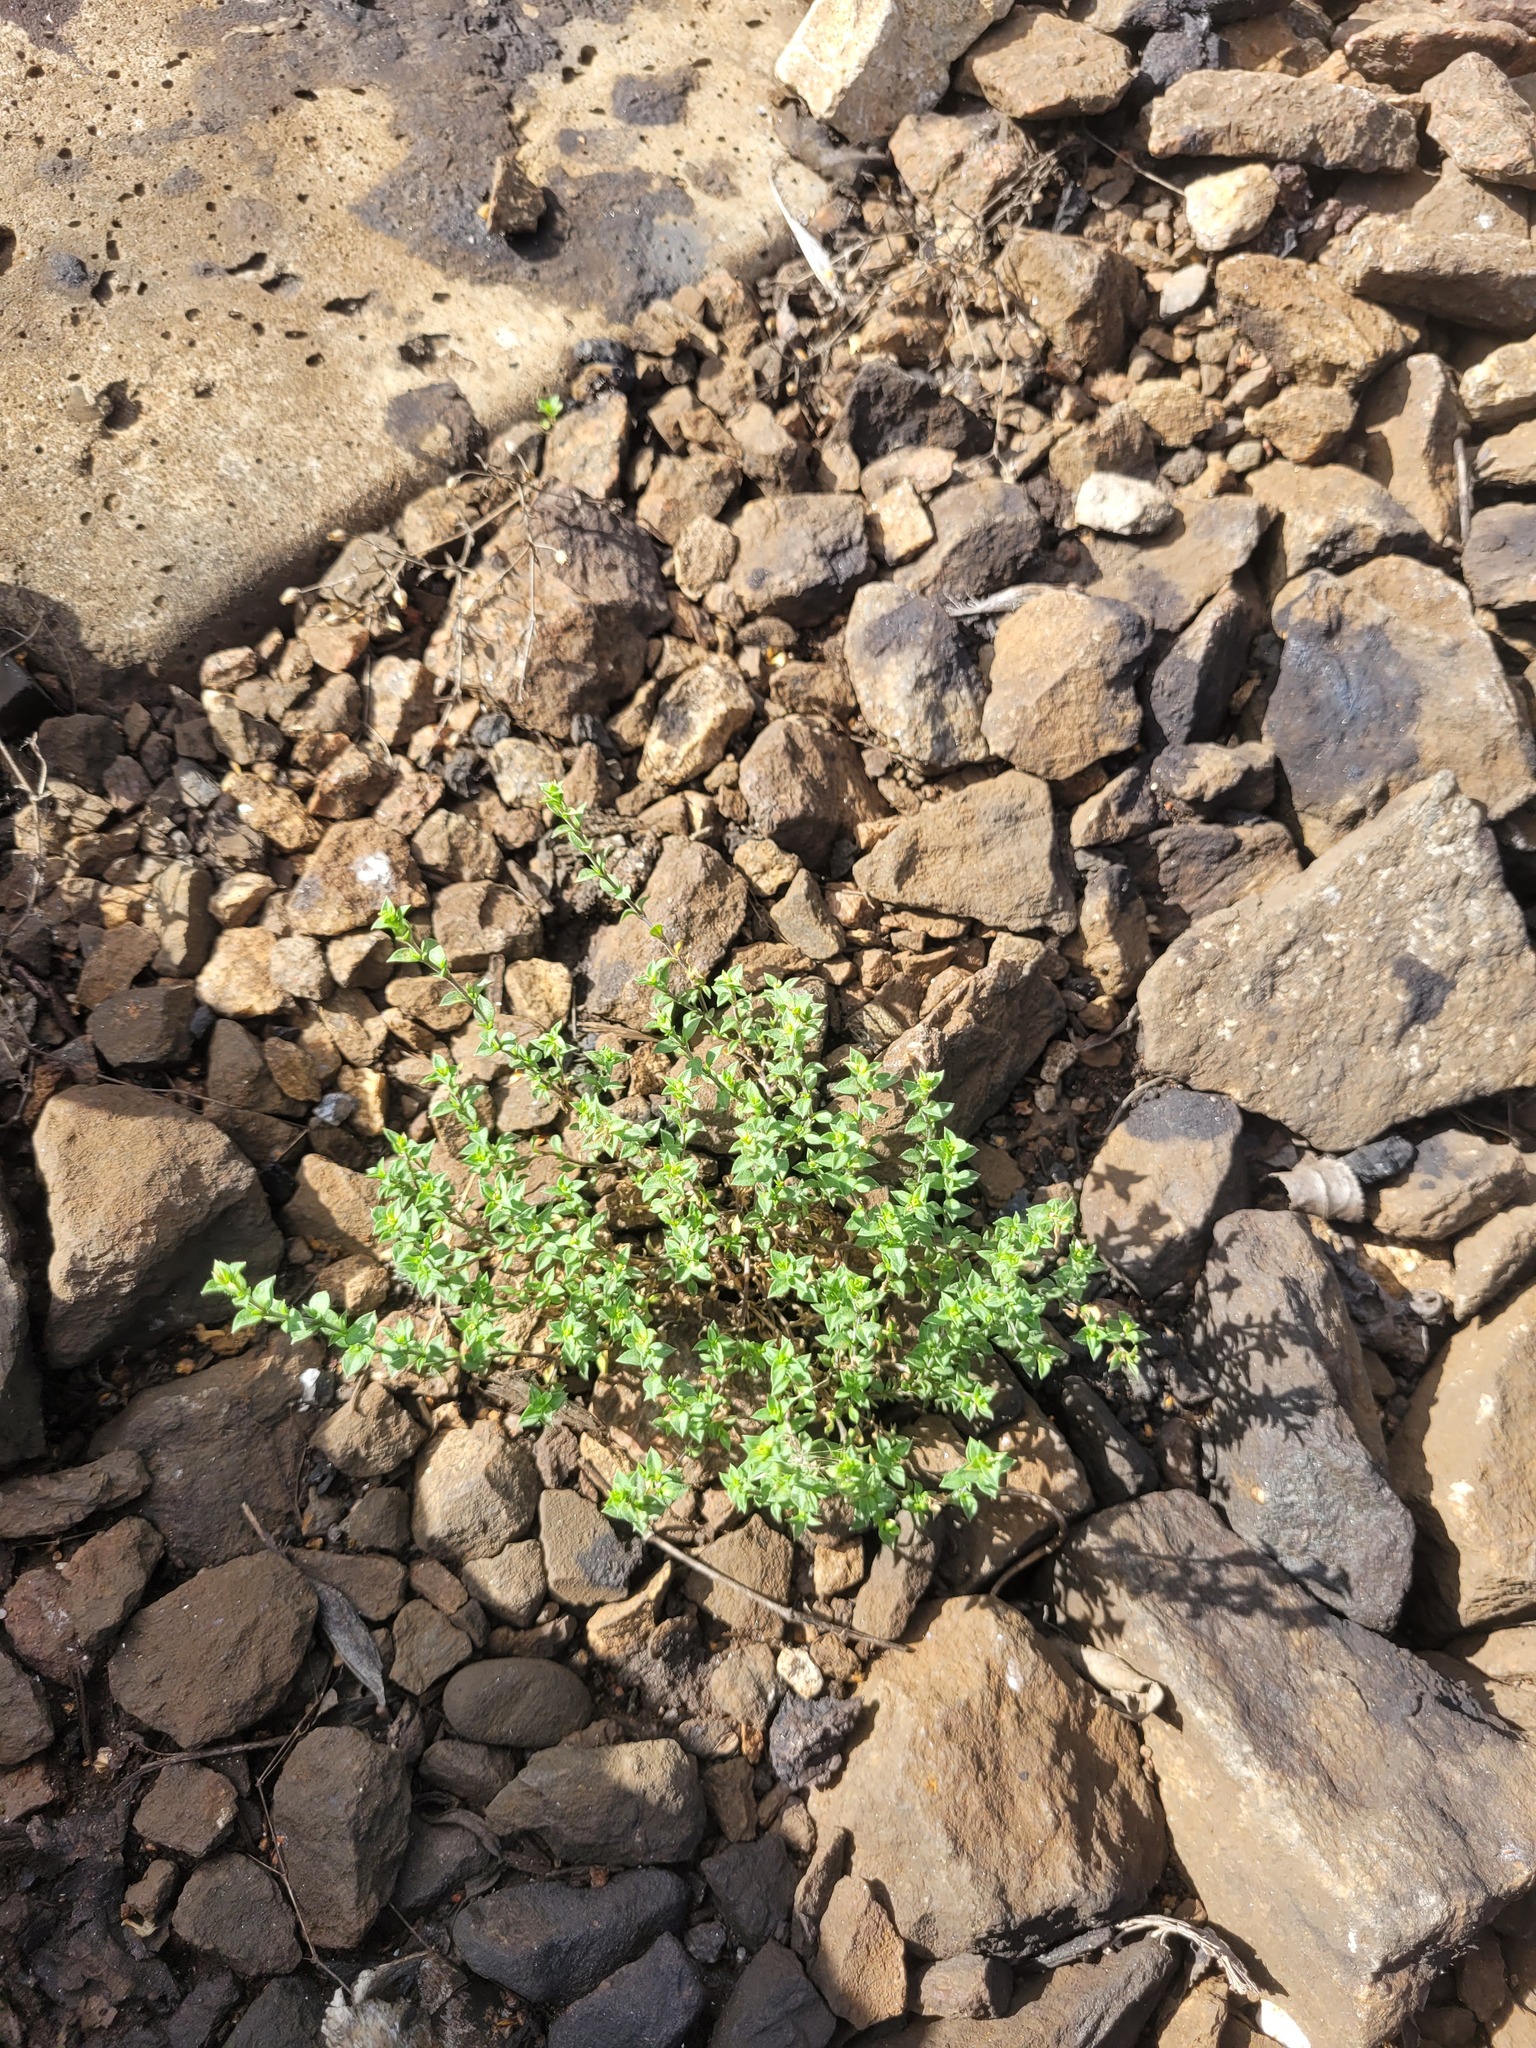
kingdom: Plantae
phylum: Tracheophyta
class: Magnoliopsida
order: Caryophyllales
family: Caryophyllaceae
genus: Arenaria
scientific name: Arenaria serpyllifolia
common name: Thyme-leaved sandwort
